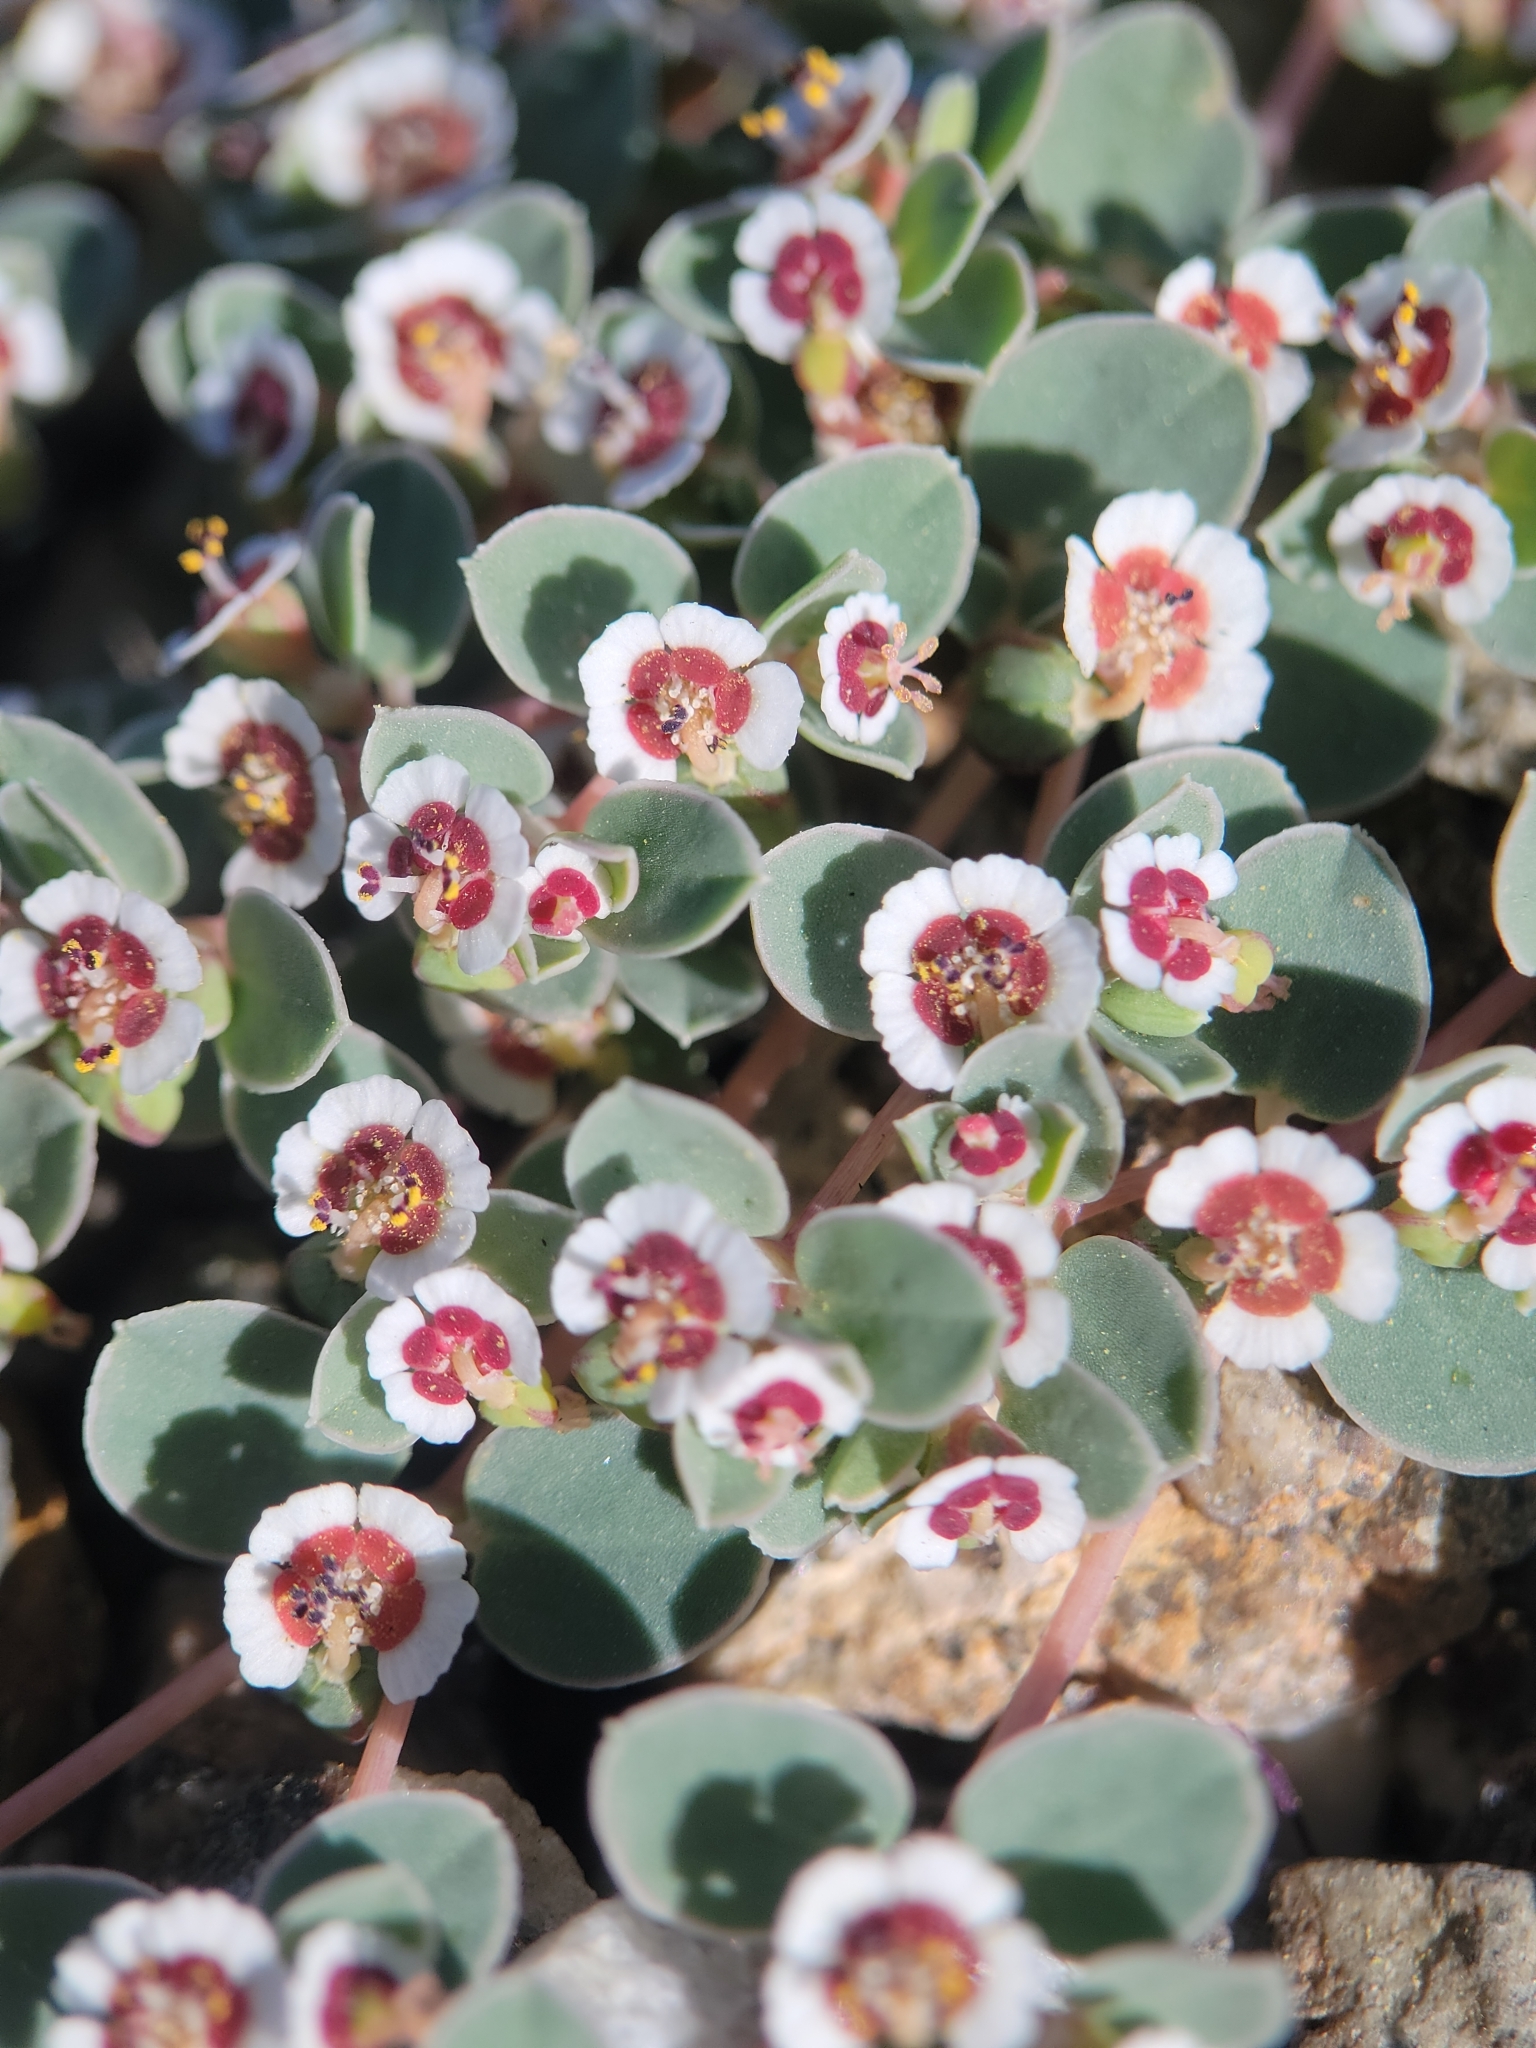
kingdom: Plantae
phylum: Tracheophyta
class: Magnoliopsida
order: Malpighiales
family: Euphorbiaceae
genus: Euphorbia
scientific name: Euphorbia albomarginata
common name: Whitemargin sandmat
